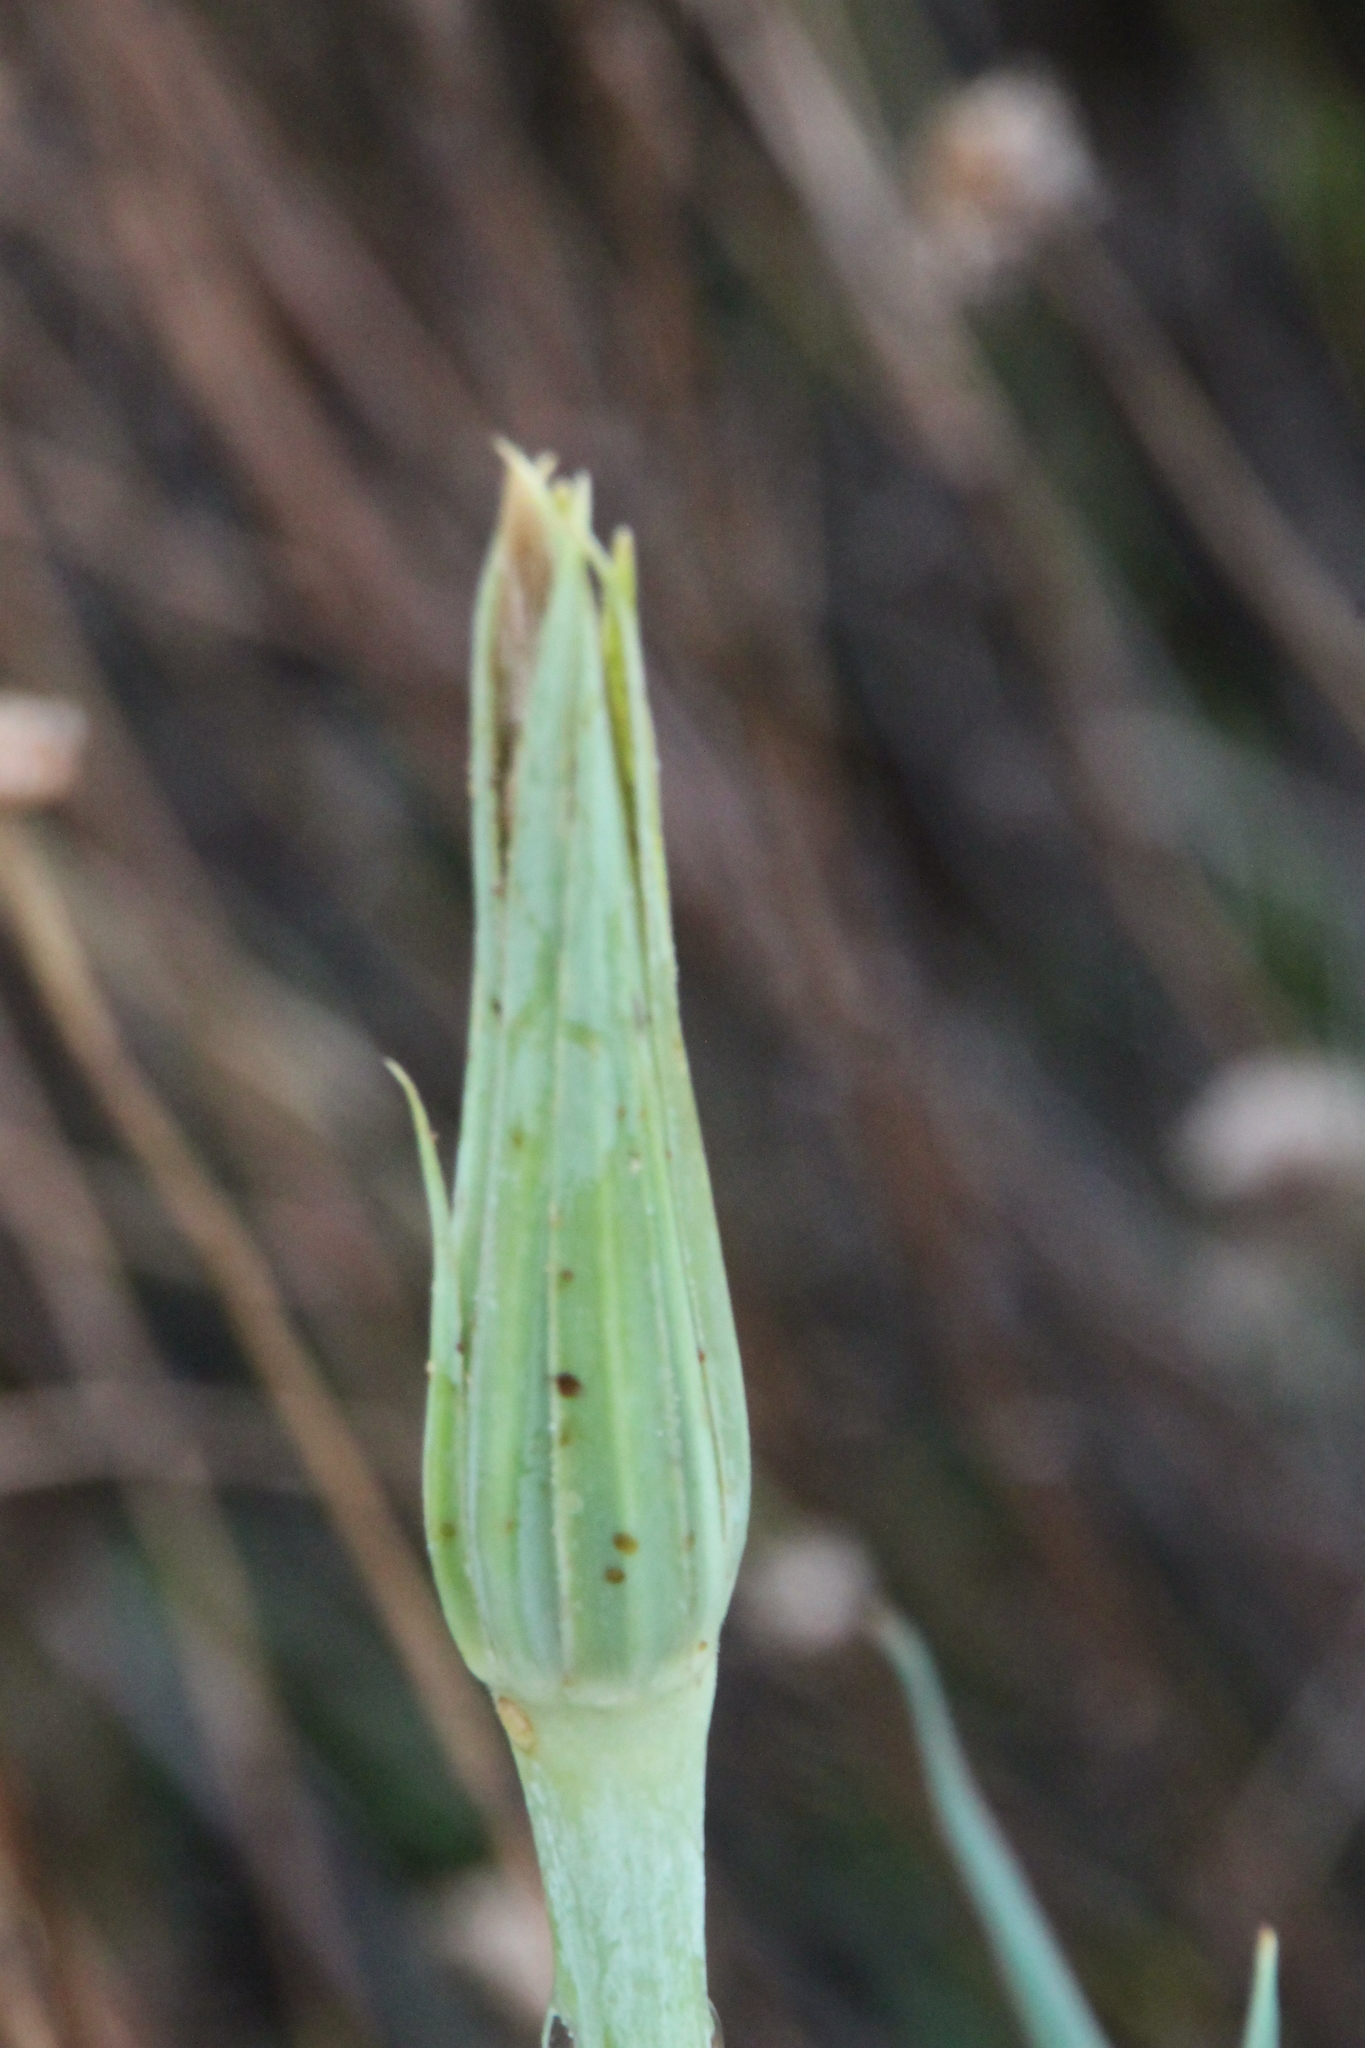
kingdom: Plantae
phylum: Tracheophyta
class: Magnoliopsida
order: Asterales
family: Asteraceae
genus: Tragopogon
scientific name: Tragopogon dubius
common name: Yellow salsify
